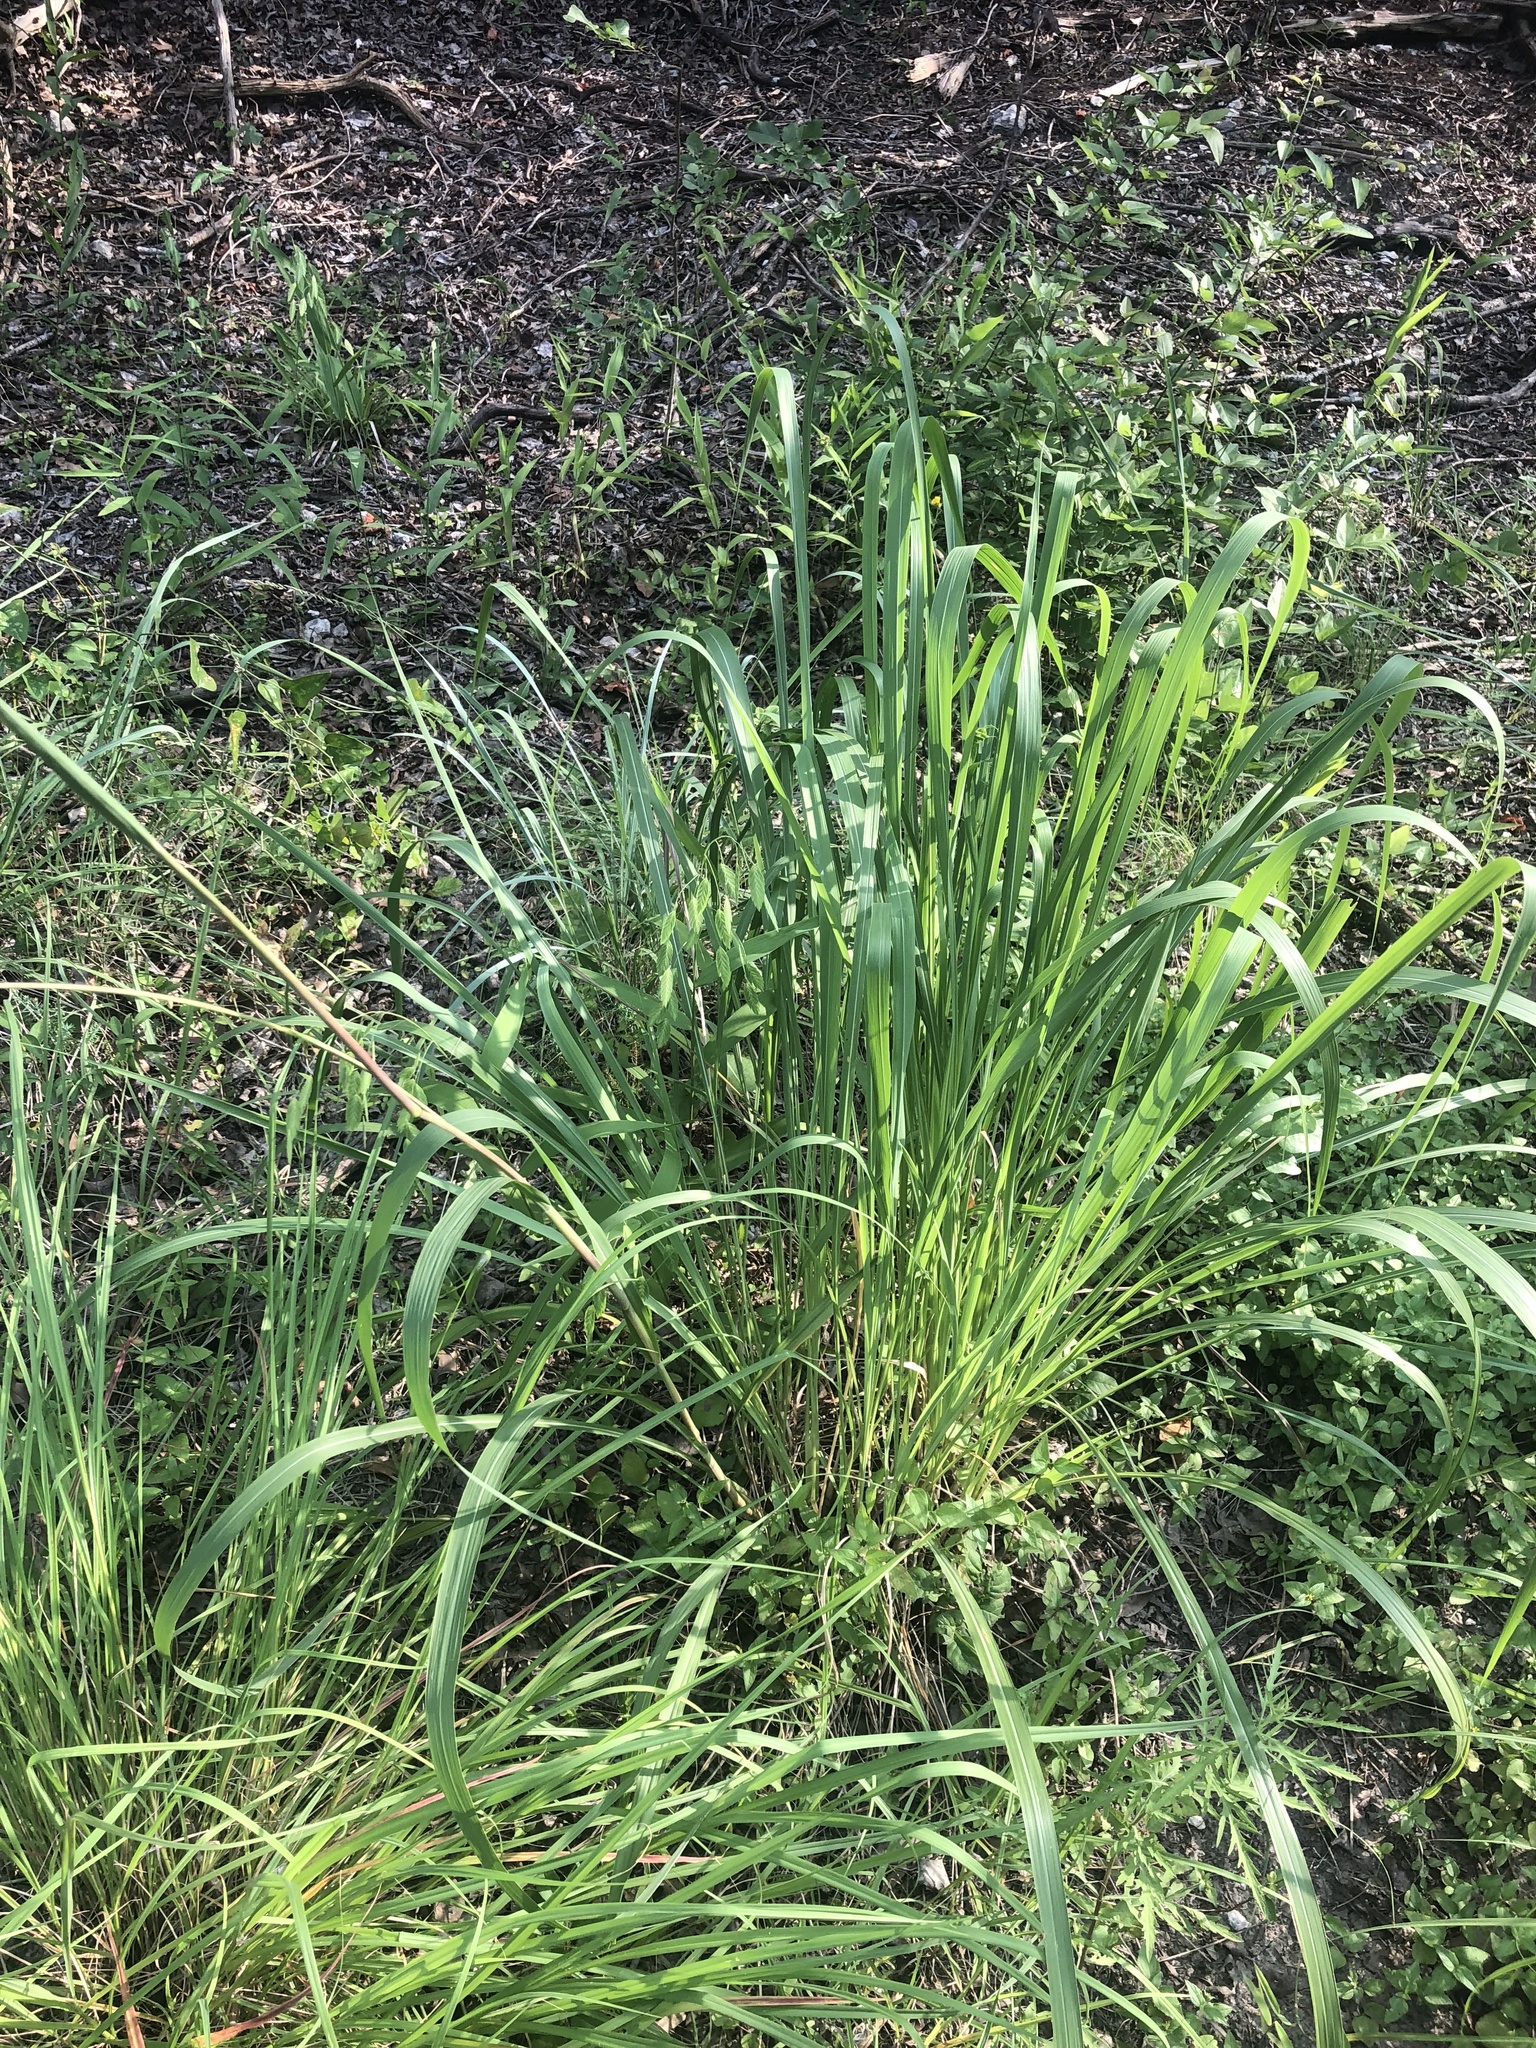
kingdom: Plantae
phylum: Tracheophyta
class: Liliopsida
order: Poales
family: Poaceae
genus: Tripsacum
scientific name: Tripsacum dactyloides
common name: Buffalo-grass
